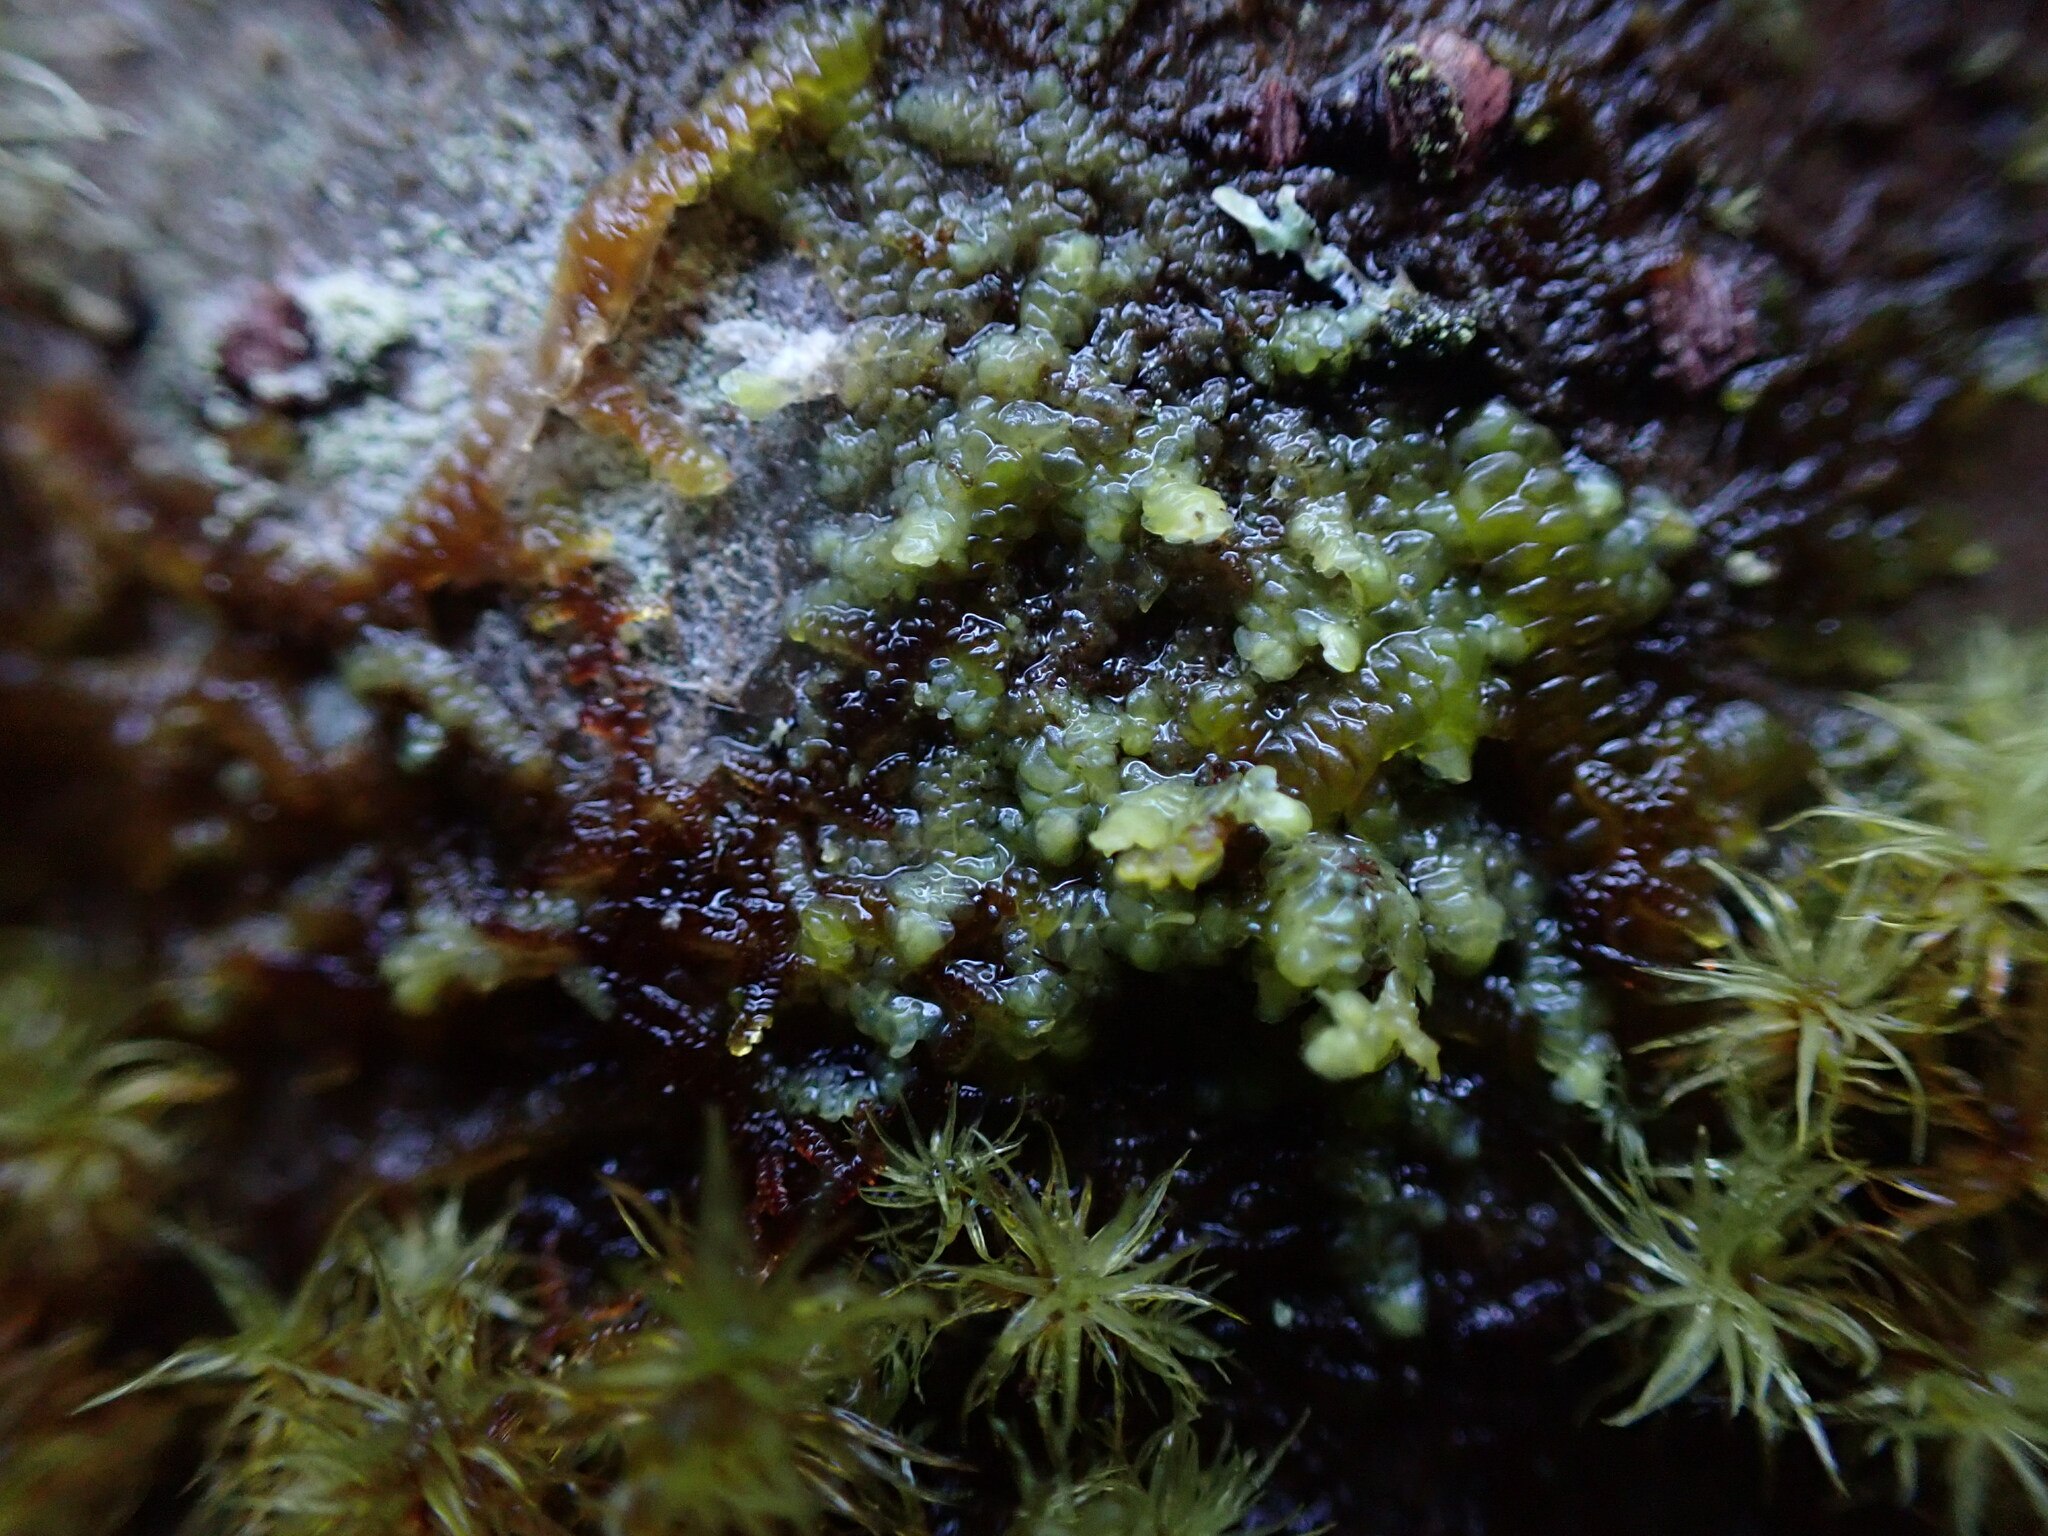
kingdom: Plantae
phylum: Marchantiophyta
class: Jungermanniopsida
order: Porellales
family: Radulaceae
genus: Radula
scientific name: Radula complanata
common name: Flat-leaved scalewort
